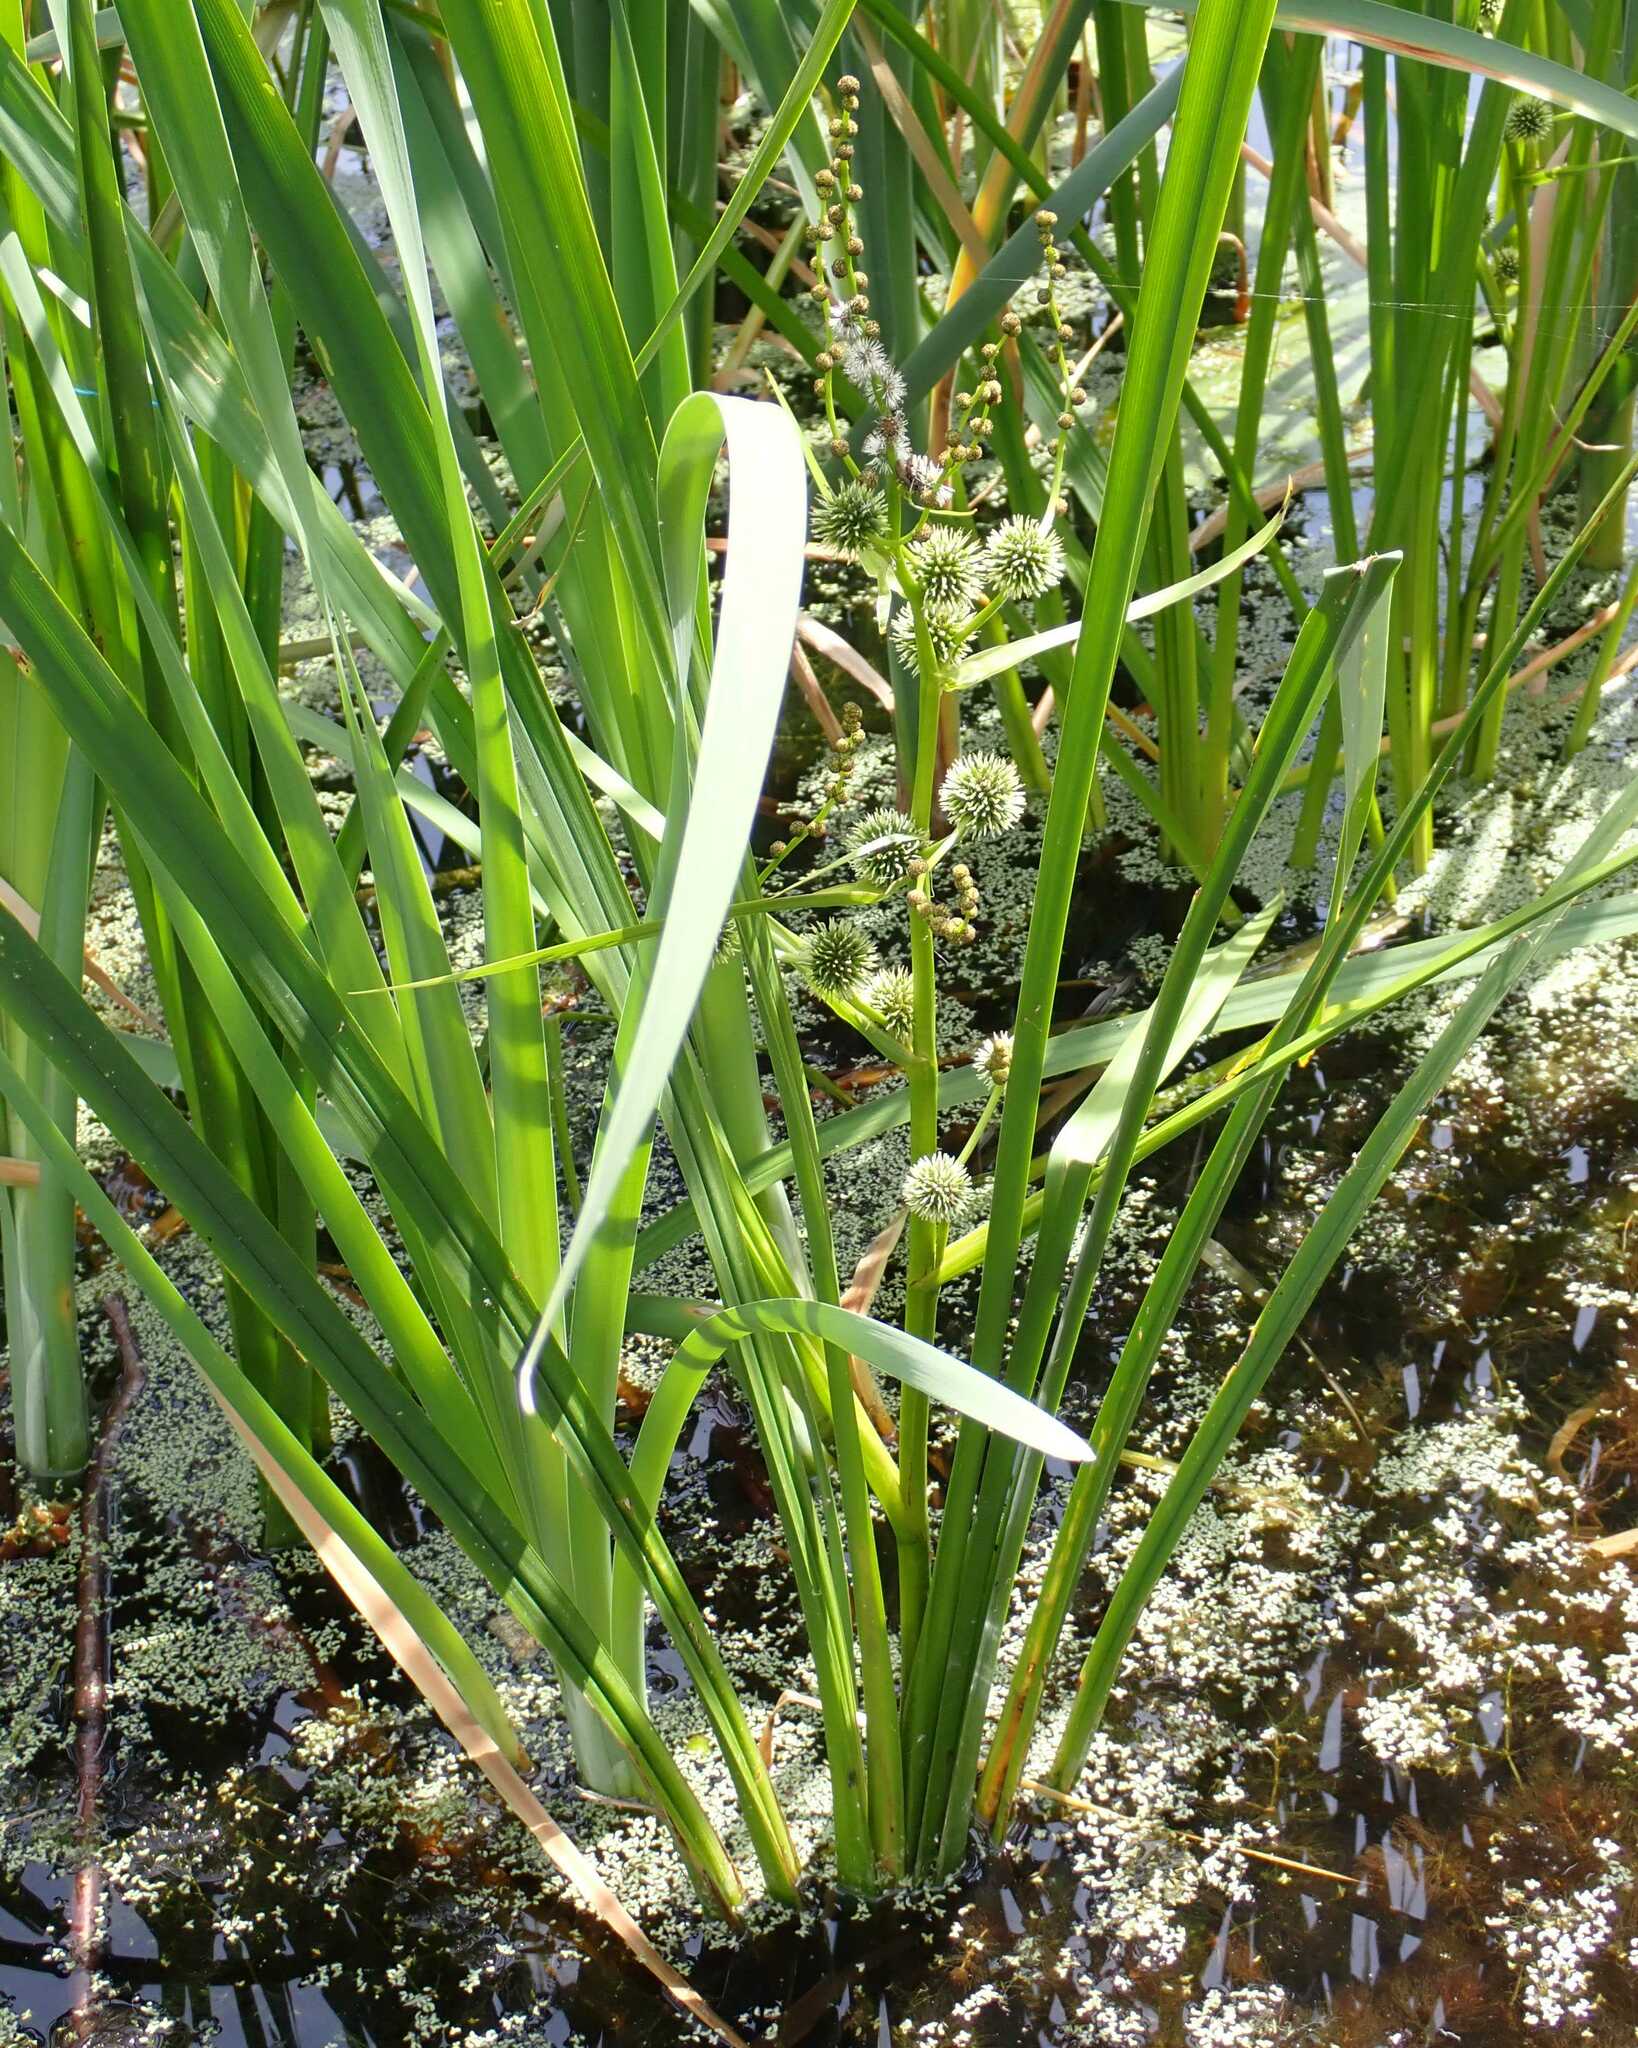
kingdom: Plantae
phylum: Tracheophyta
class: Liliopsida
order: Poales
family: Typhaceae
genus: Sparganium
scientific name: Sparganium erectum
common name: Branched bur-reed
